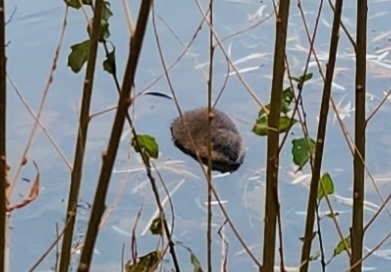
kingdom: Animalia
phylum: Chordata
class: Mammalia
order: Rodentia
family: Cricetidae
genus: Ondatra
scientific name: Ondatra zibethicus
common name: Muskrat
